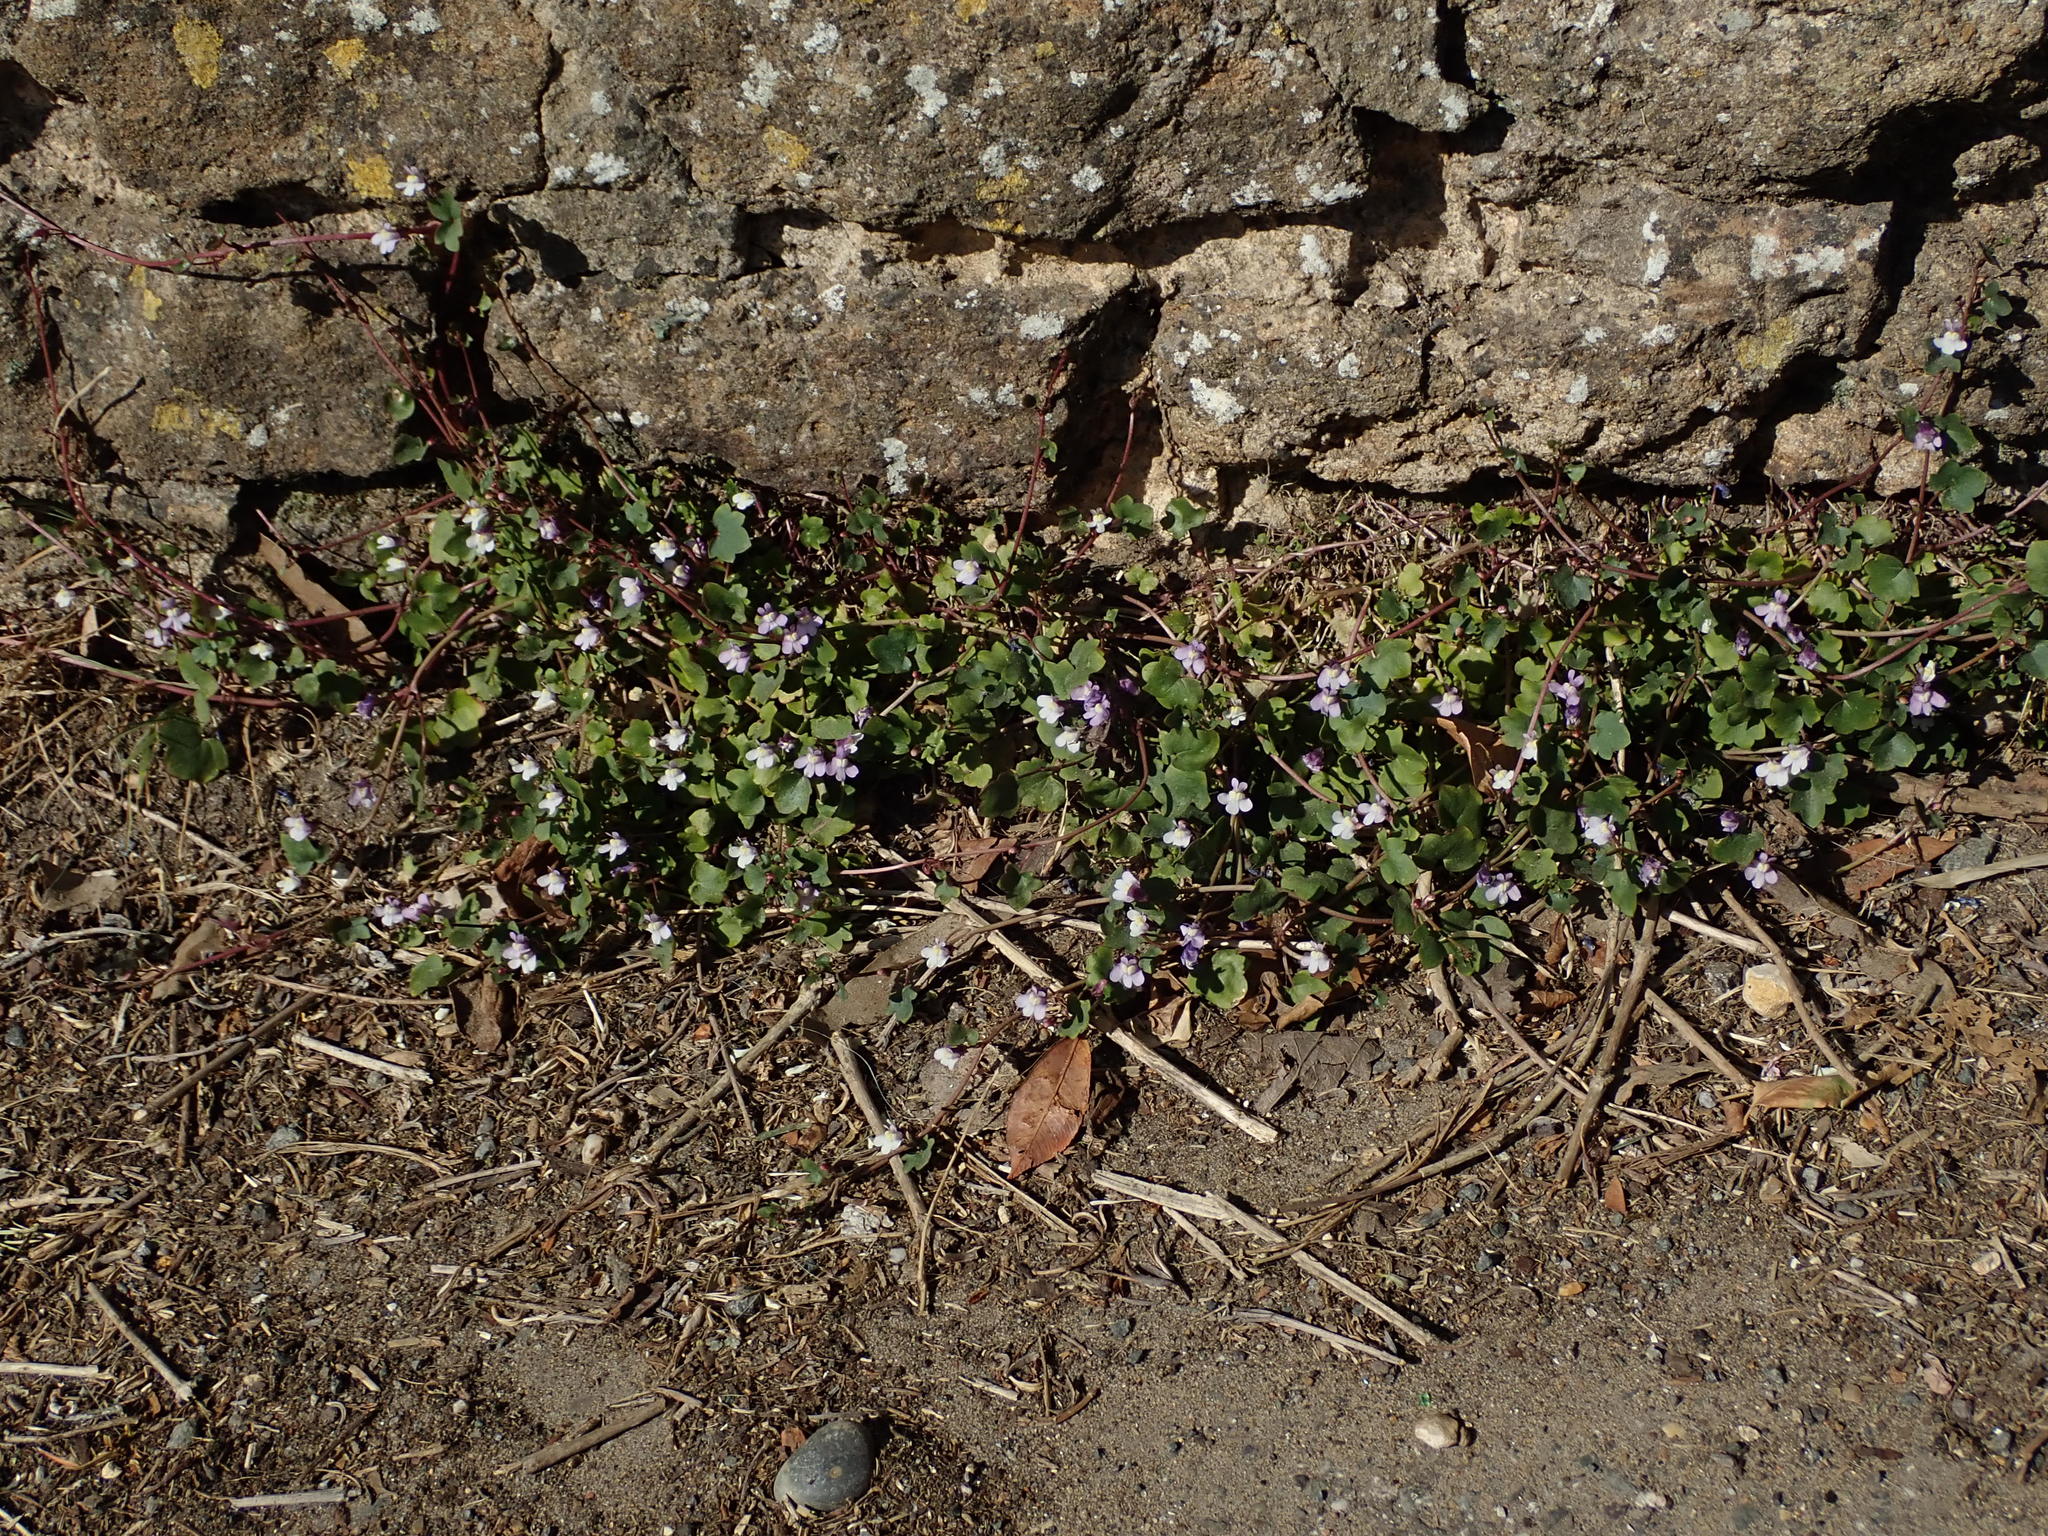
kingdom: Plantae
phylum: Tracheophyta
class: Magnoliopsida
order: Lamiales
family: Plantaginaceae
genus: Cymbalaria
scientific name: Cymbalaria muralis
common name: Ivy-leaved toadflax
